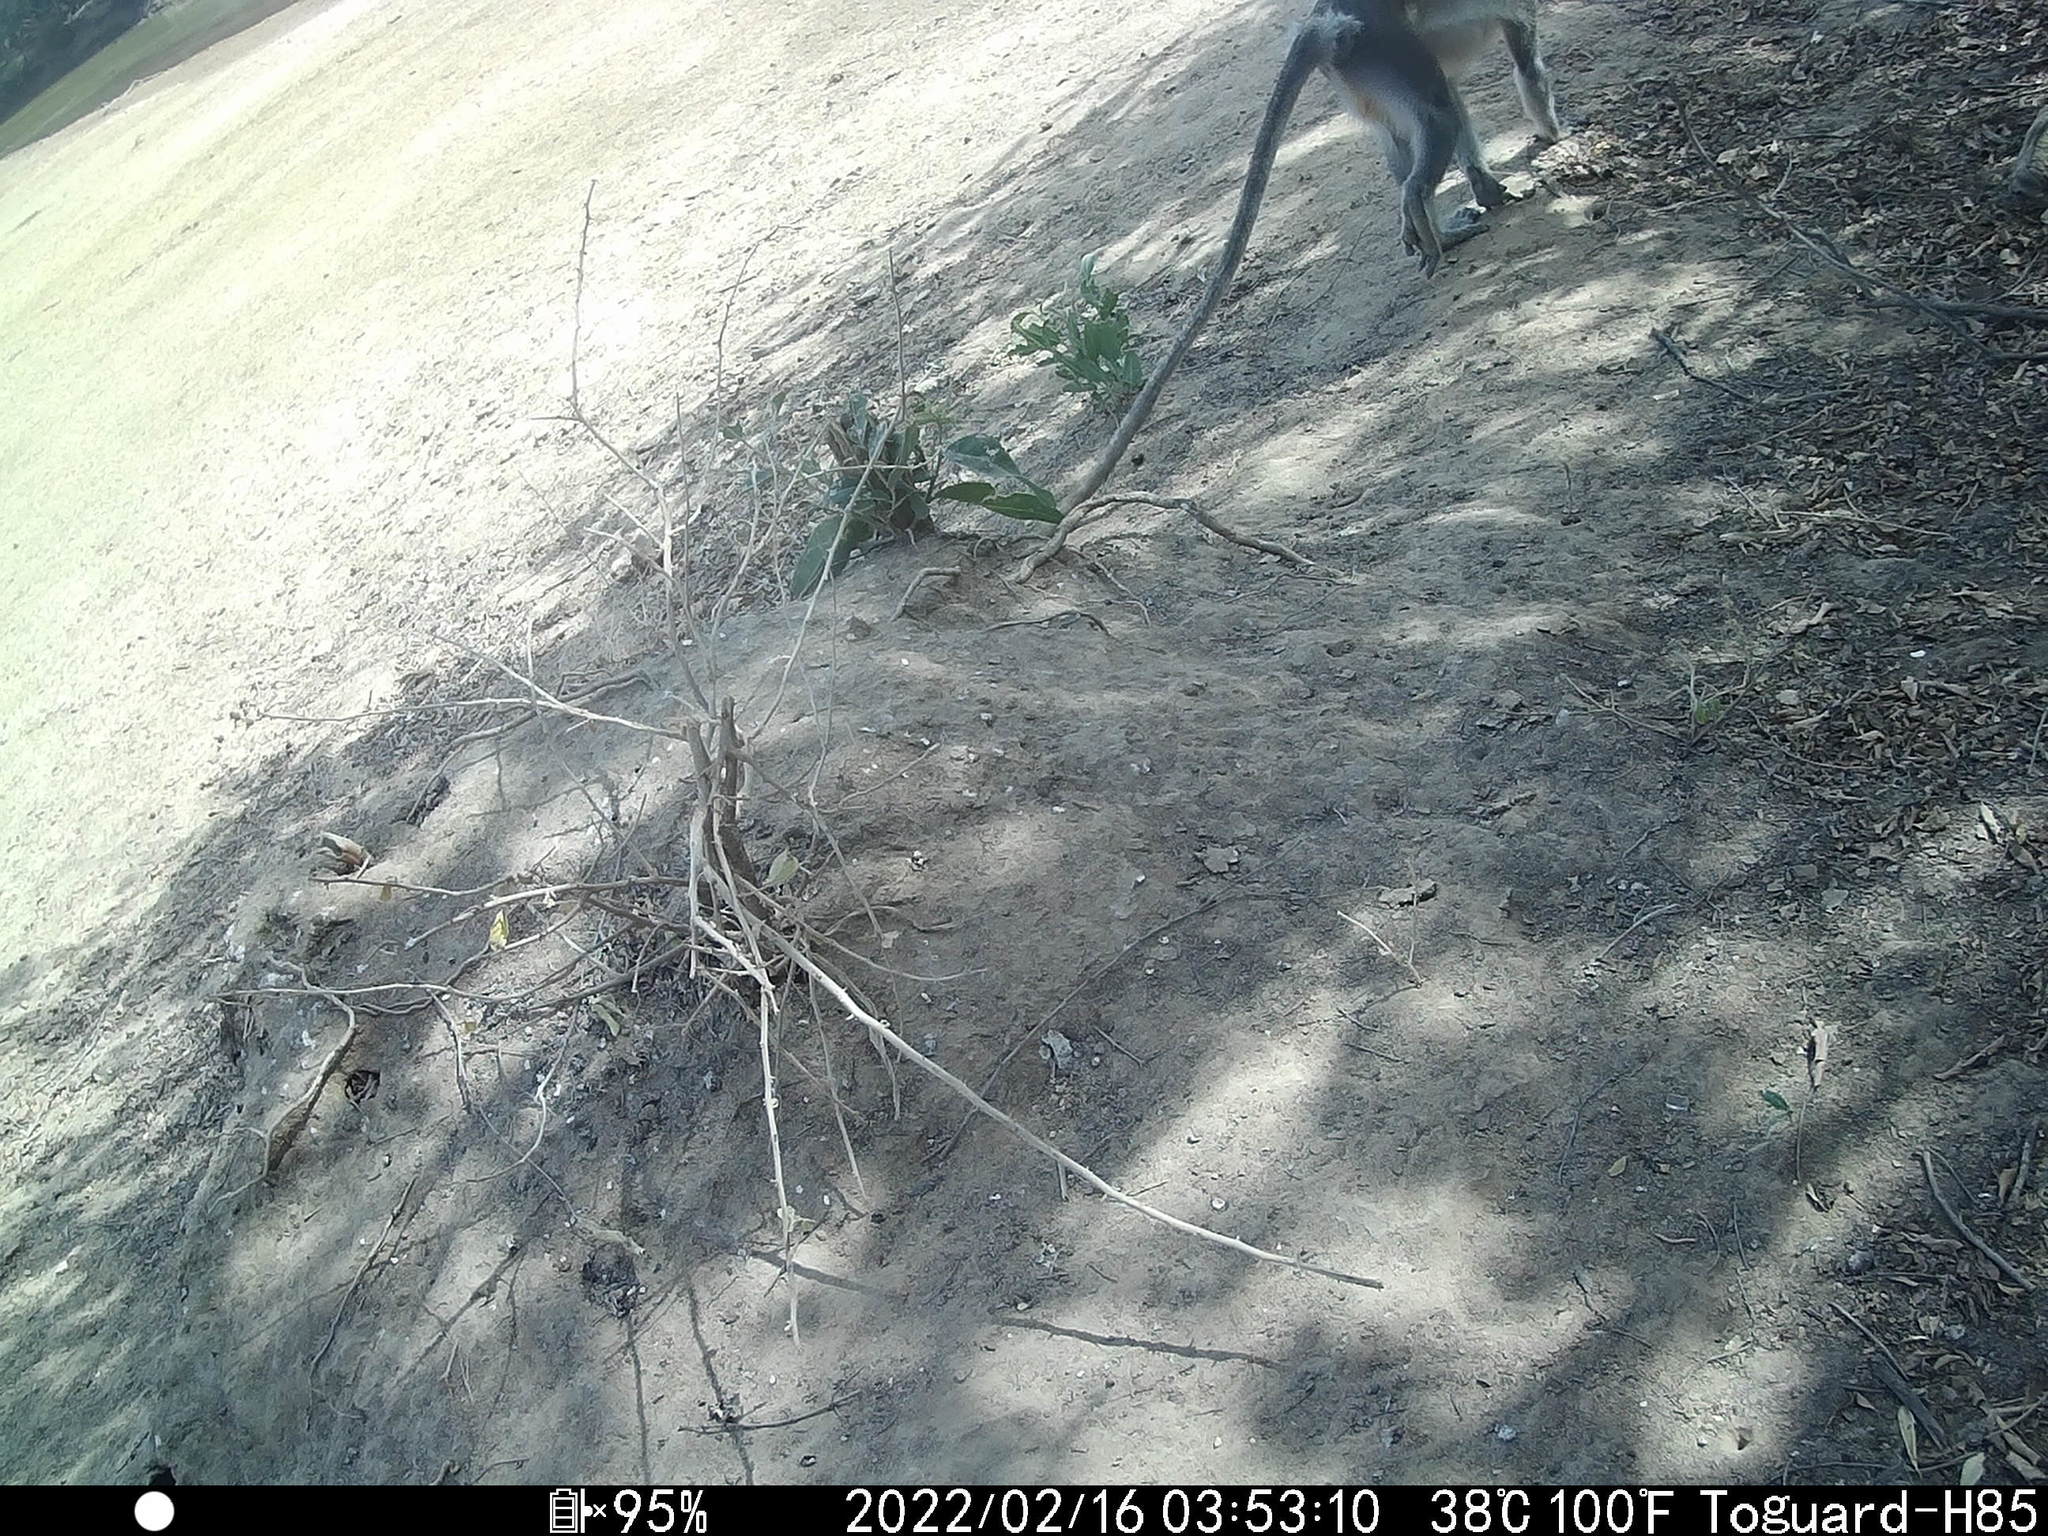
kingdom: Animalia
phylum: Chordata
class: Mammalia
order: Primates
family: Cercopithecidae
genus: Chlorocebus
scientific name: Chlorocebus tantalus
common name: Tantalus monkey
